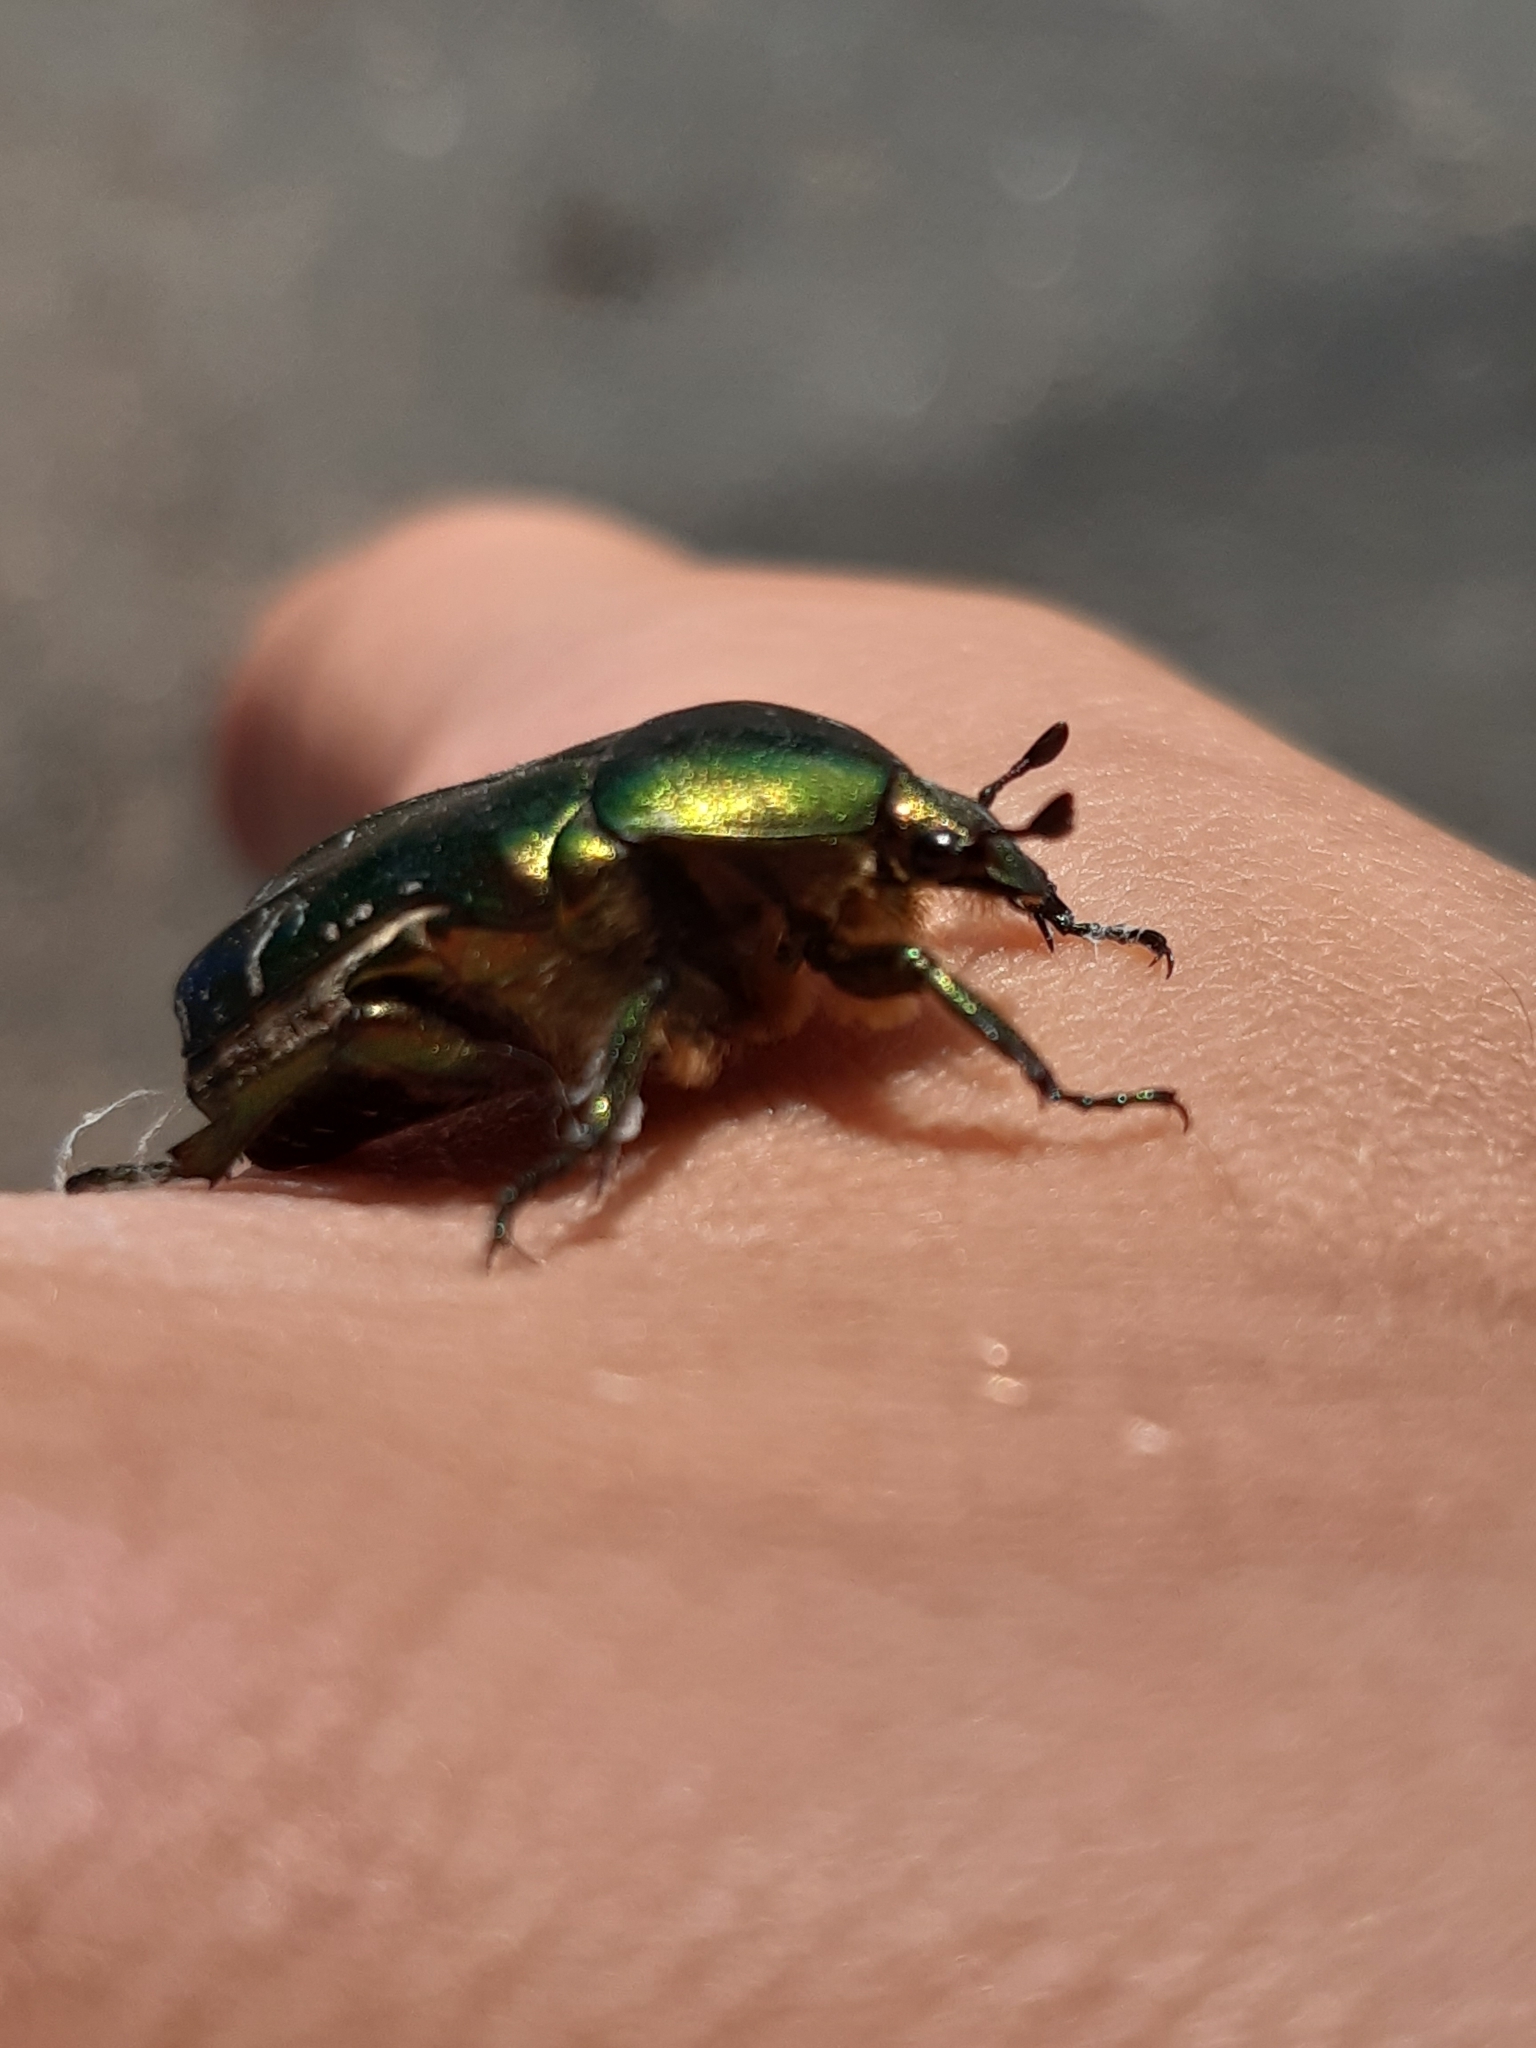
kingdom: Animalia
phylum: Arthropoda
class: Insecta
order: Coleoptera
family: Scarabaeidae
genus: Cetonia
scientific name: Cetonia aurata
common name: Rose chafer
